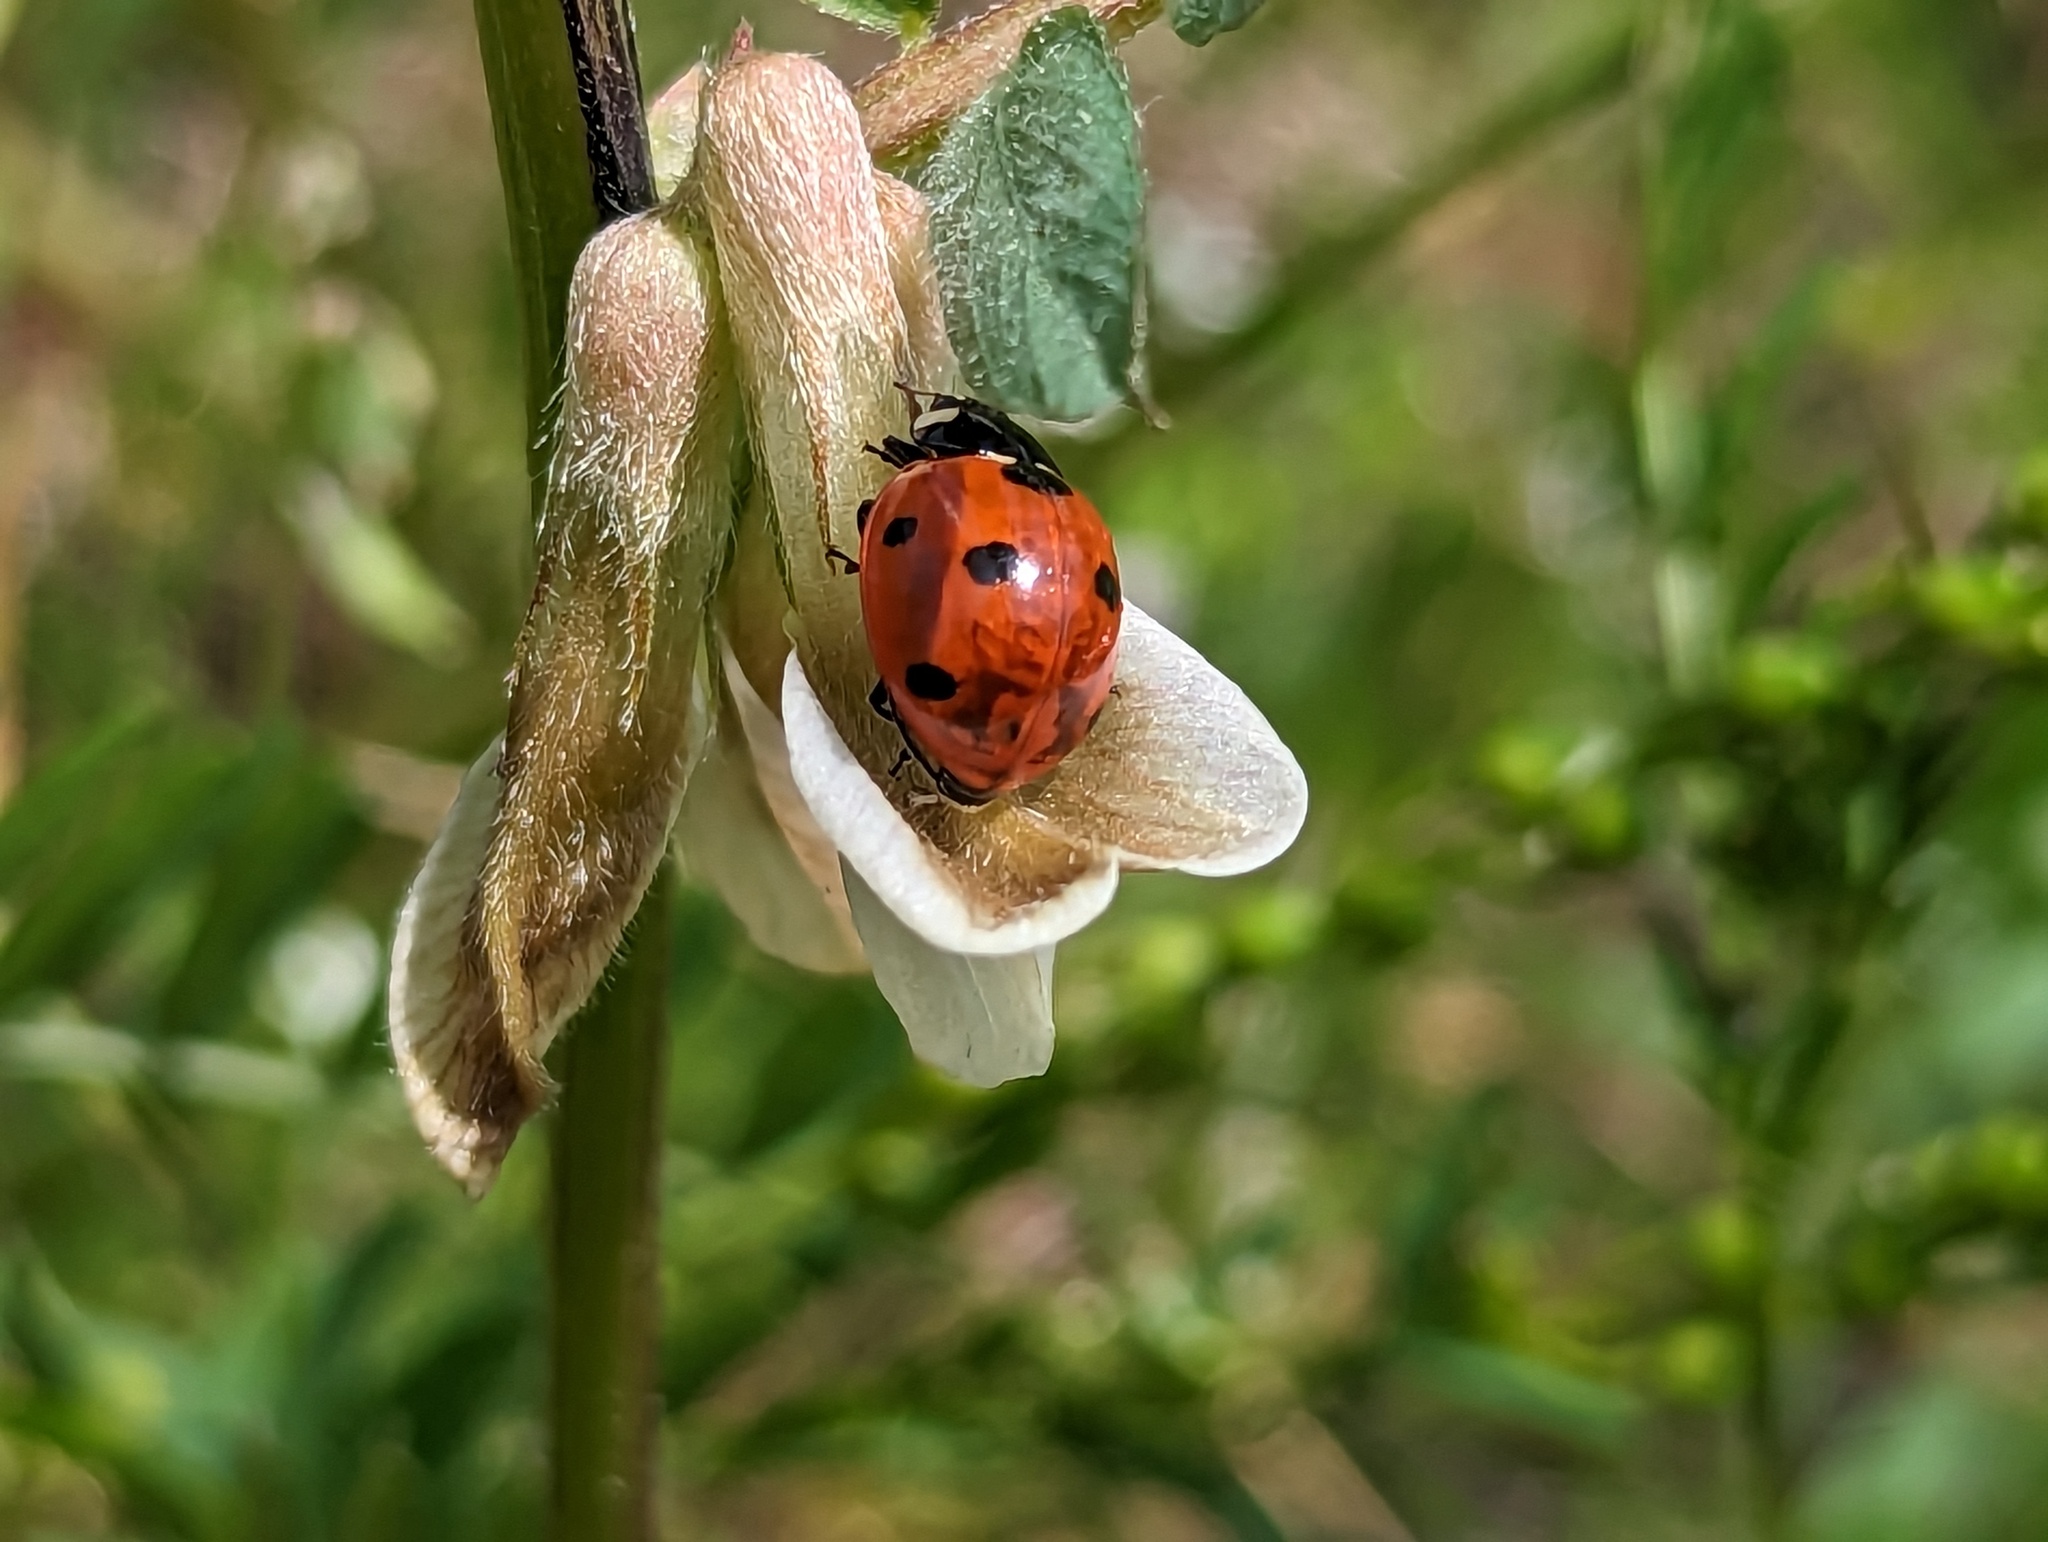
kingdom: Animalia
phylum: Arthropoda
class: Insecta
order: Coleoptera
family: Coccinellidae
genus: Coccinella
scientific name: Coccinella septempunctata
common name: Sevenspotted lady beetle
